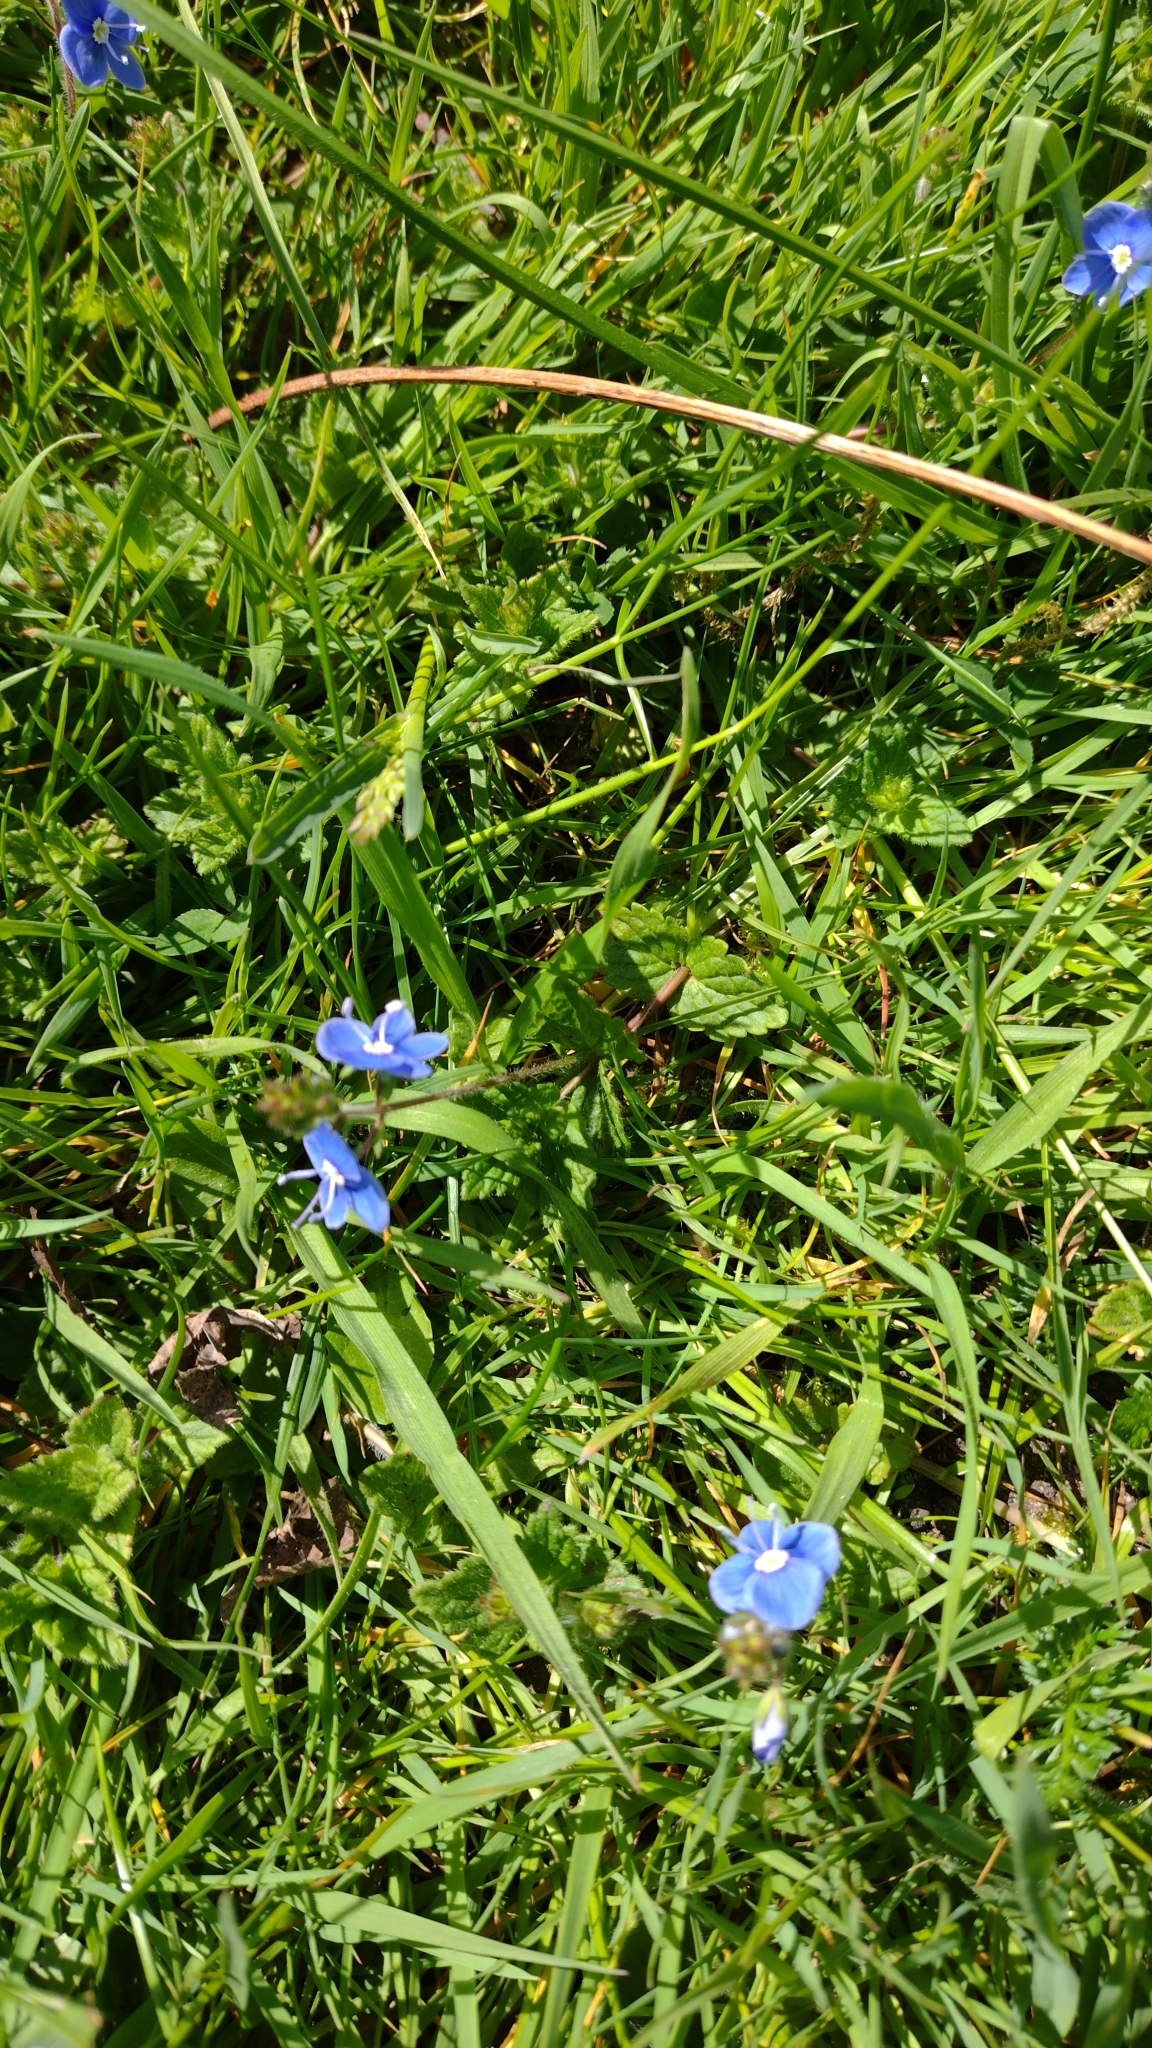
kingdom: Plantae
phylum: Tracheophyta
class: Magnoliopsida
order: Lamiales
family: Plantaginaceae
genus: Veronica
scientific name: Veronica chamaedrys
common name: Germander speedwell
